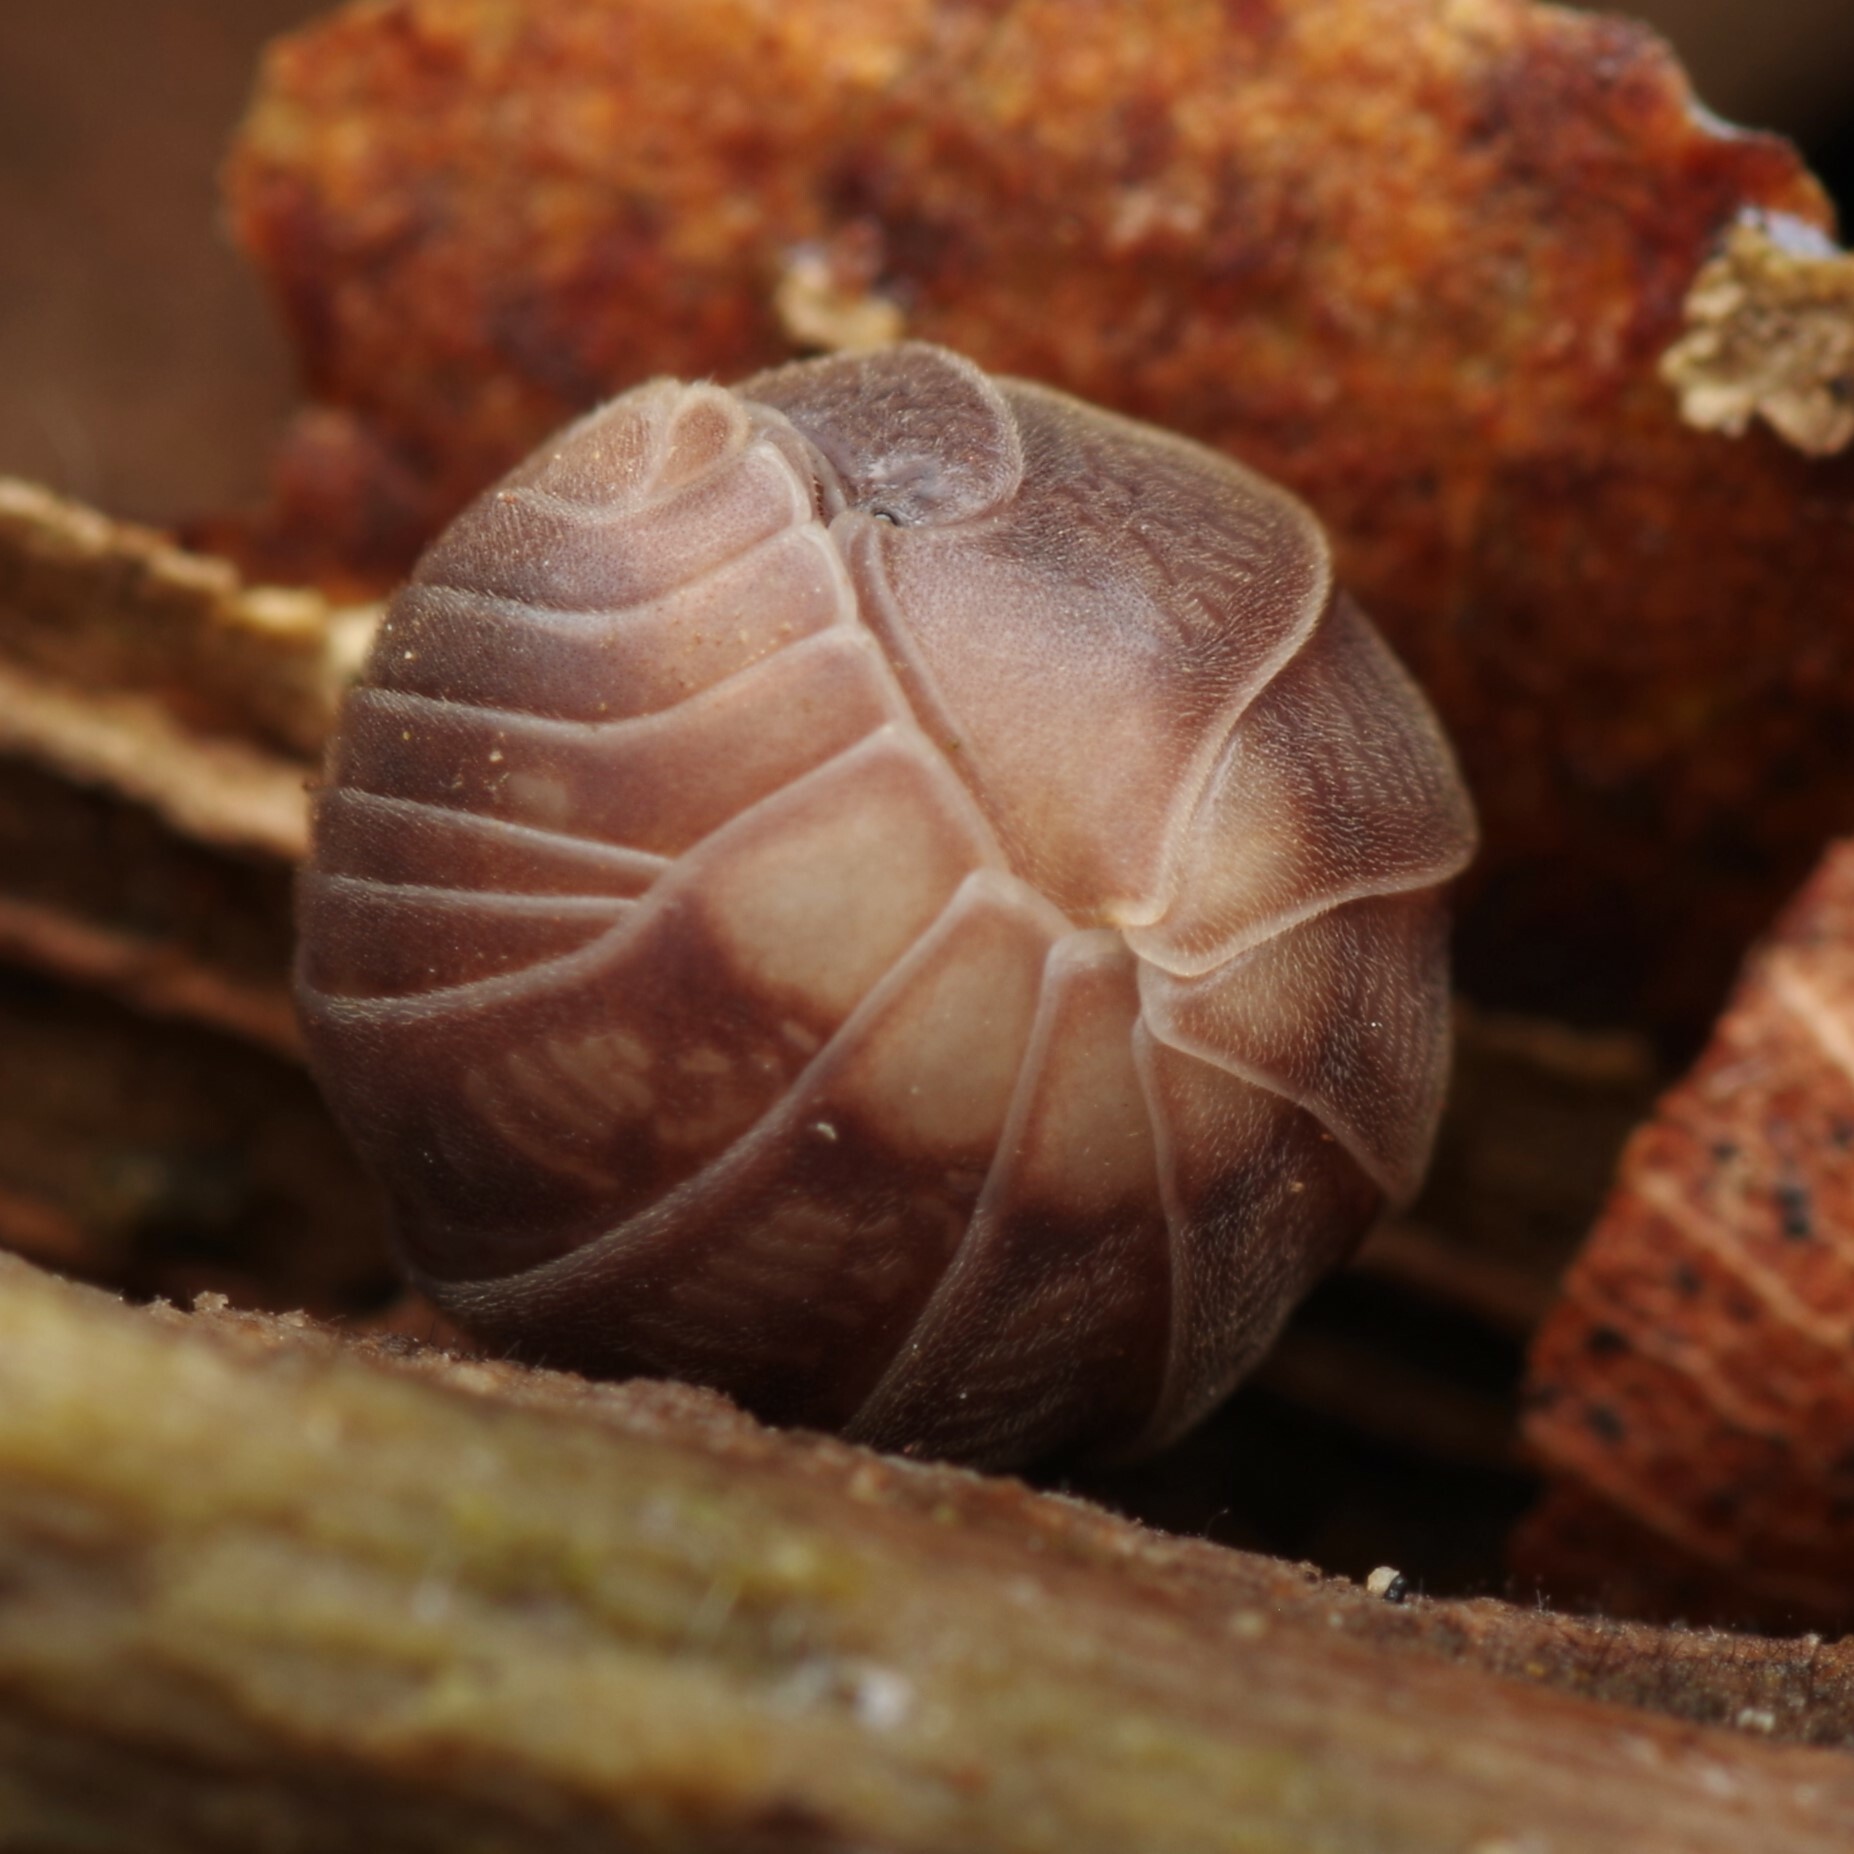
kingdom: Animalia
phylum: Arthropoda
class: Malacostraca
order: Isopoda
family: Armadillidiidae
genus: Eluma
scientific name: Eluma caelata
